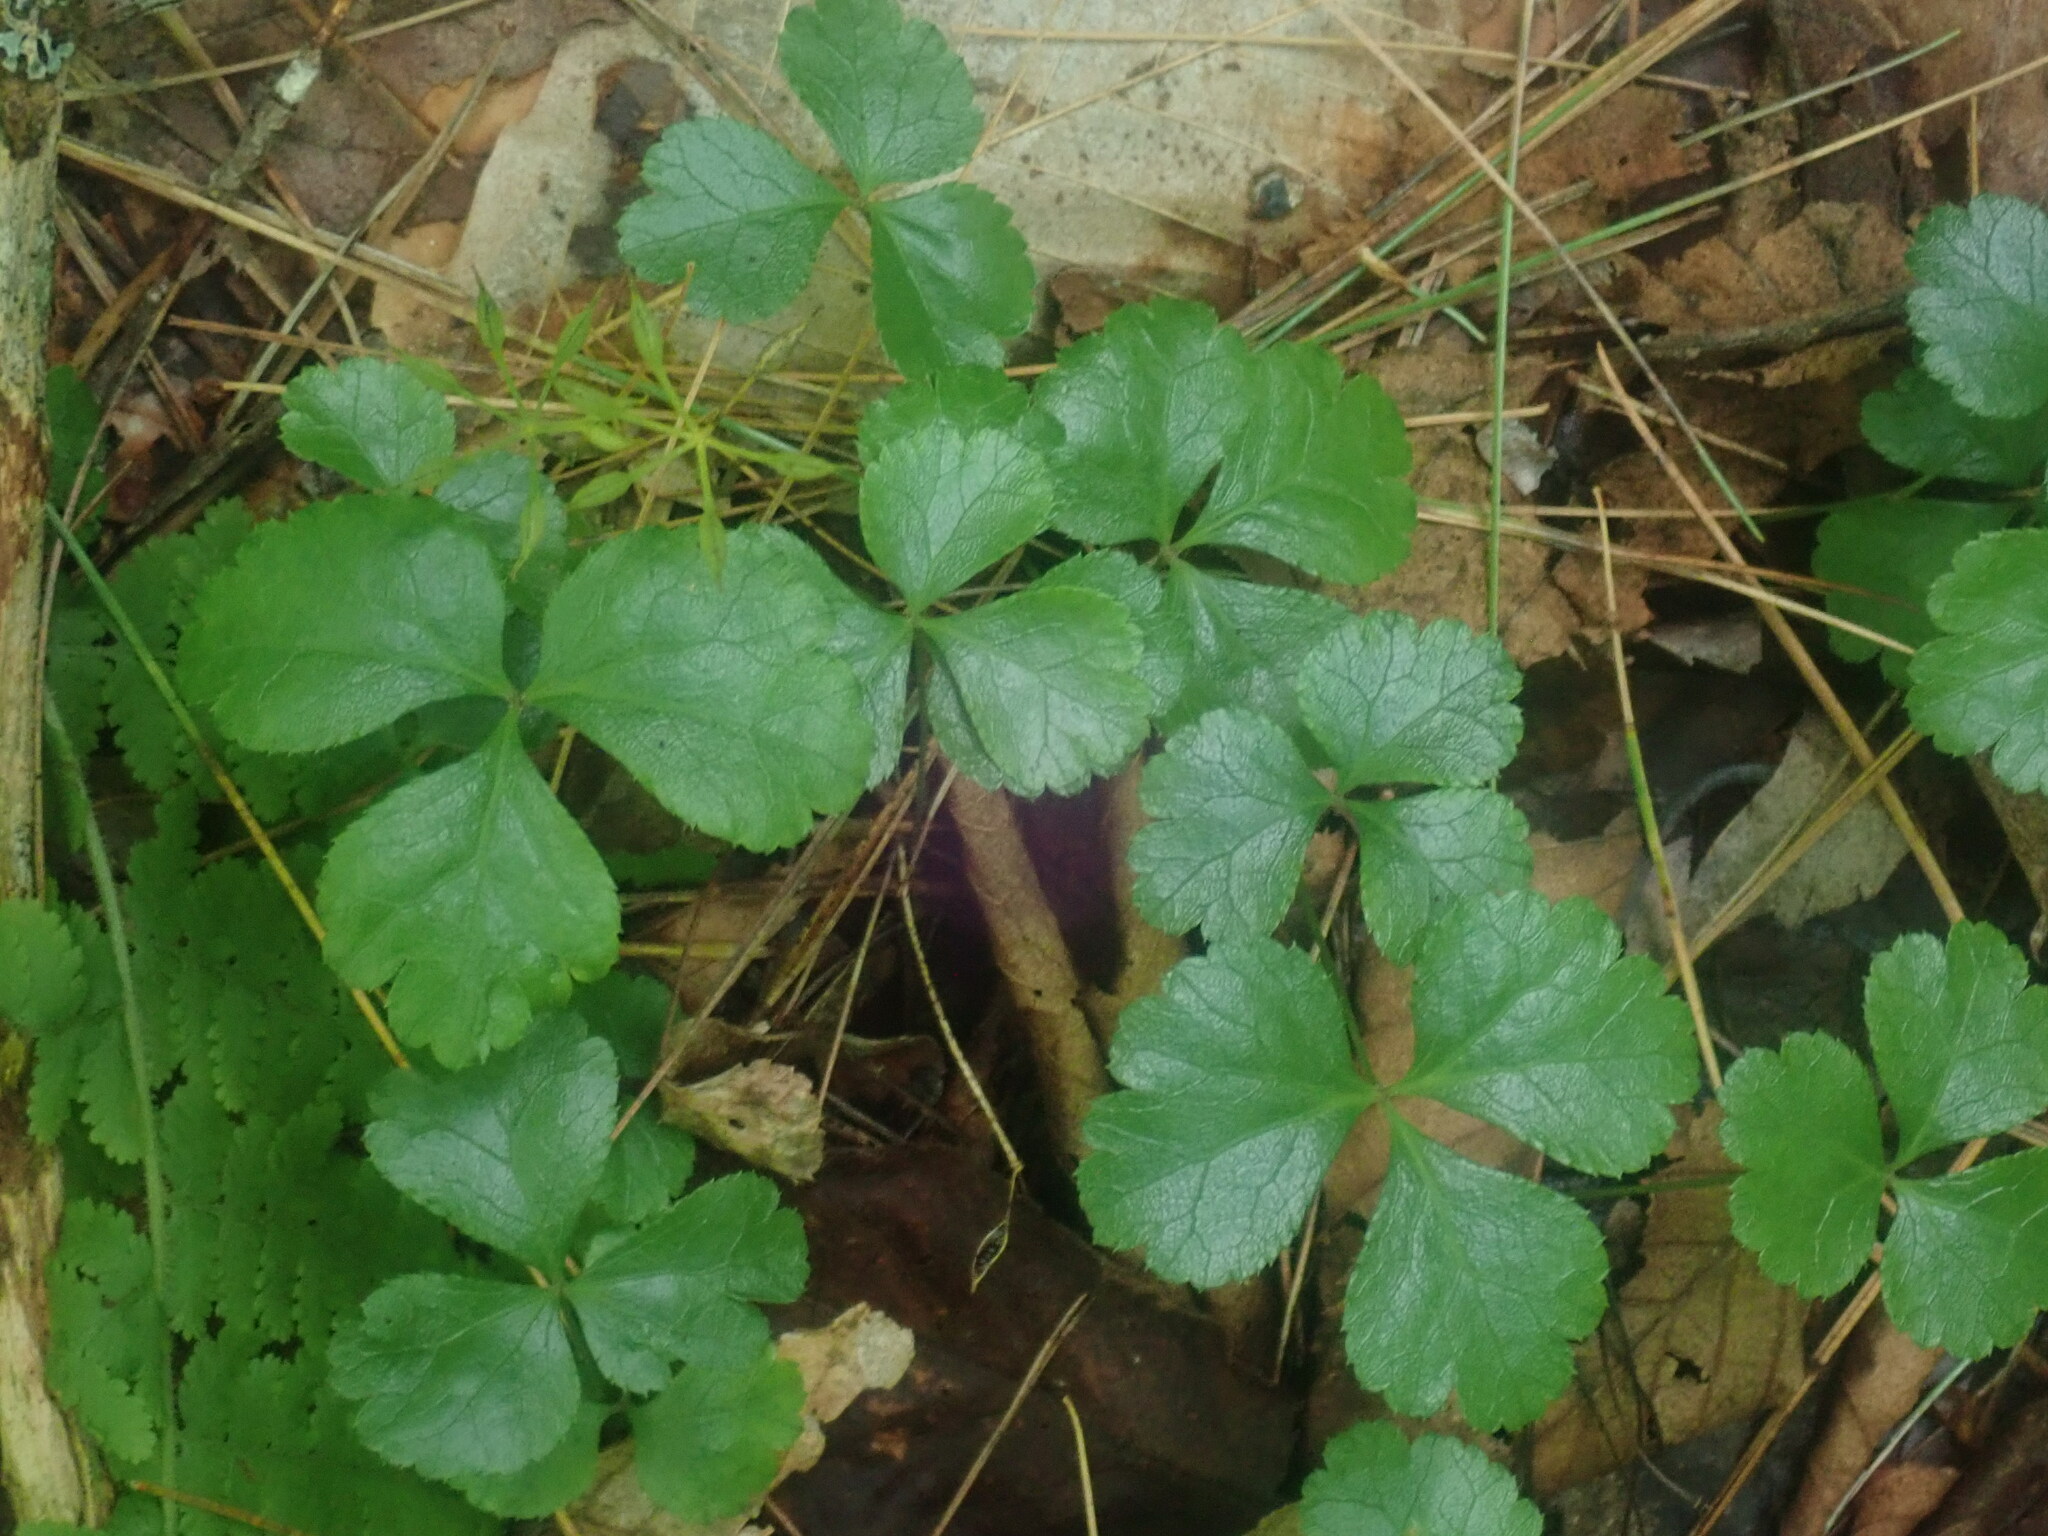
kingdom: Plantae
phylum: Tracheophyta
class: Magnoliopsida
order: Ranunculales
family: Ranunculaceae
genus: Coptis
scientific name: Coptis trifolia
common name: Canker-root
